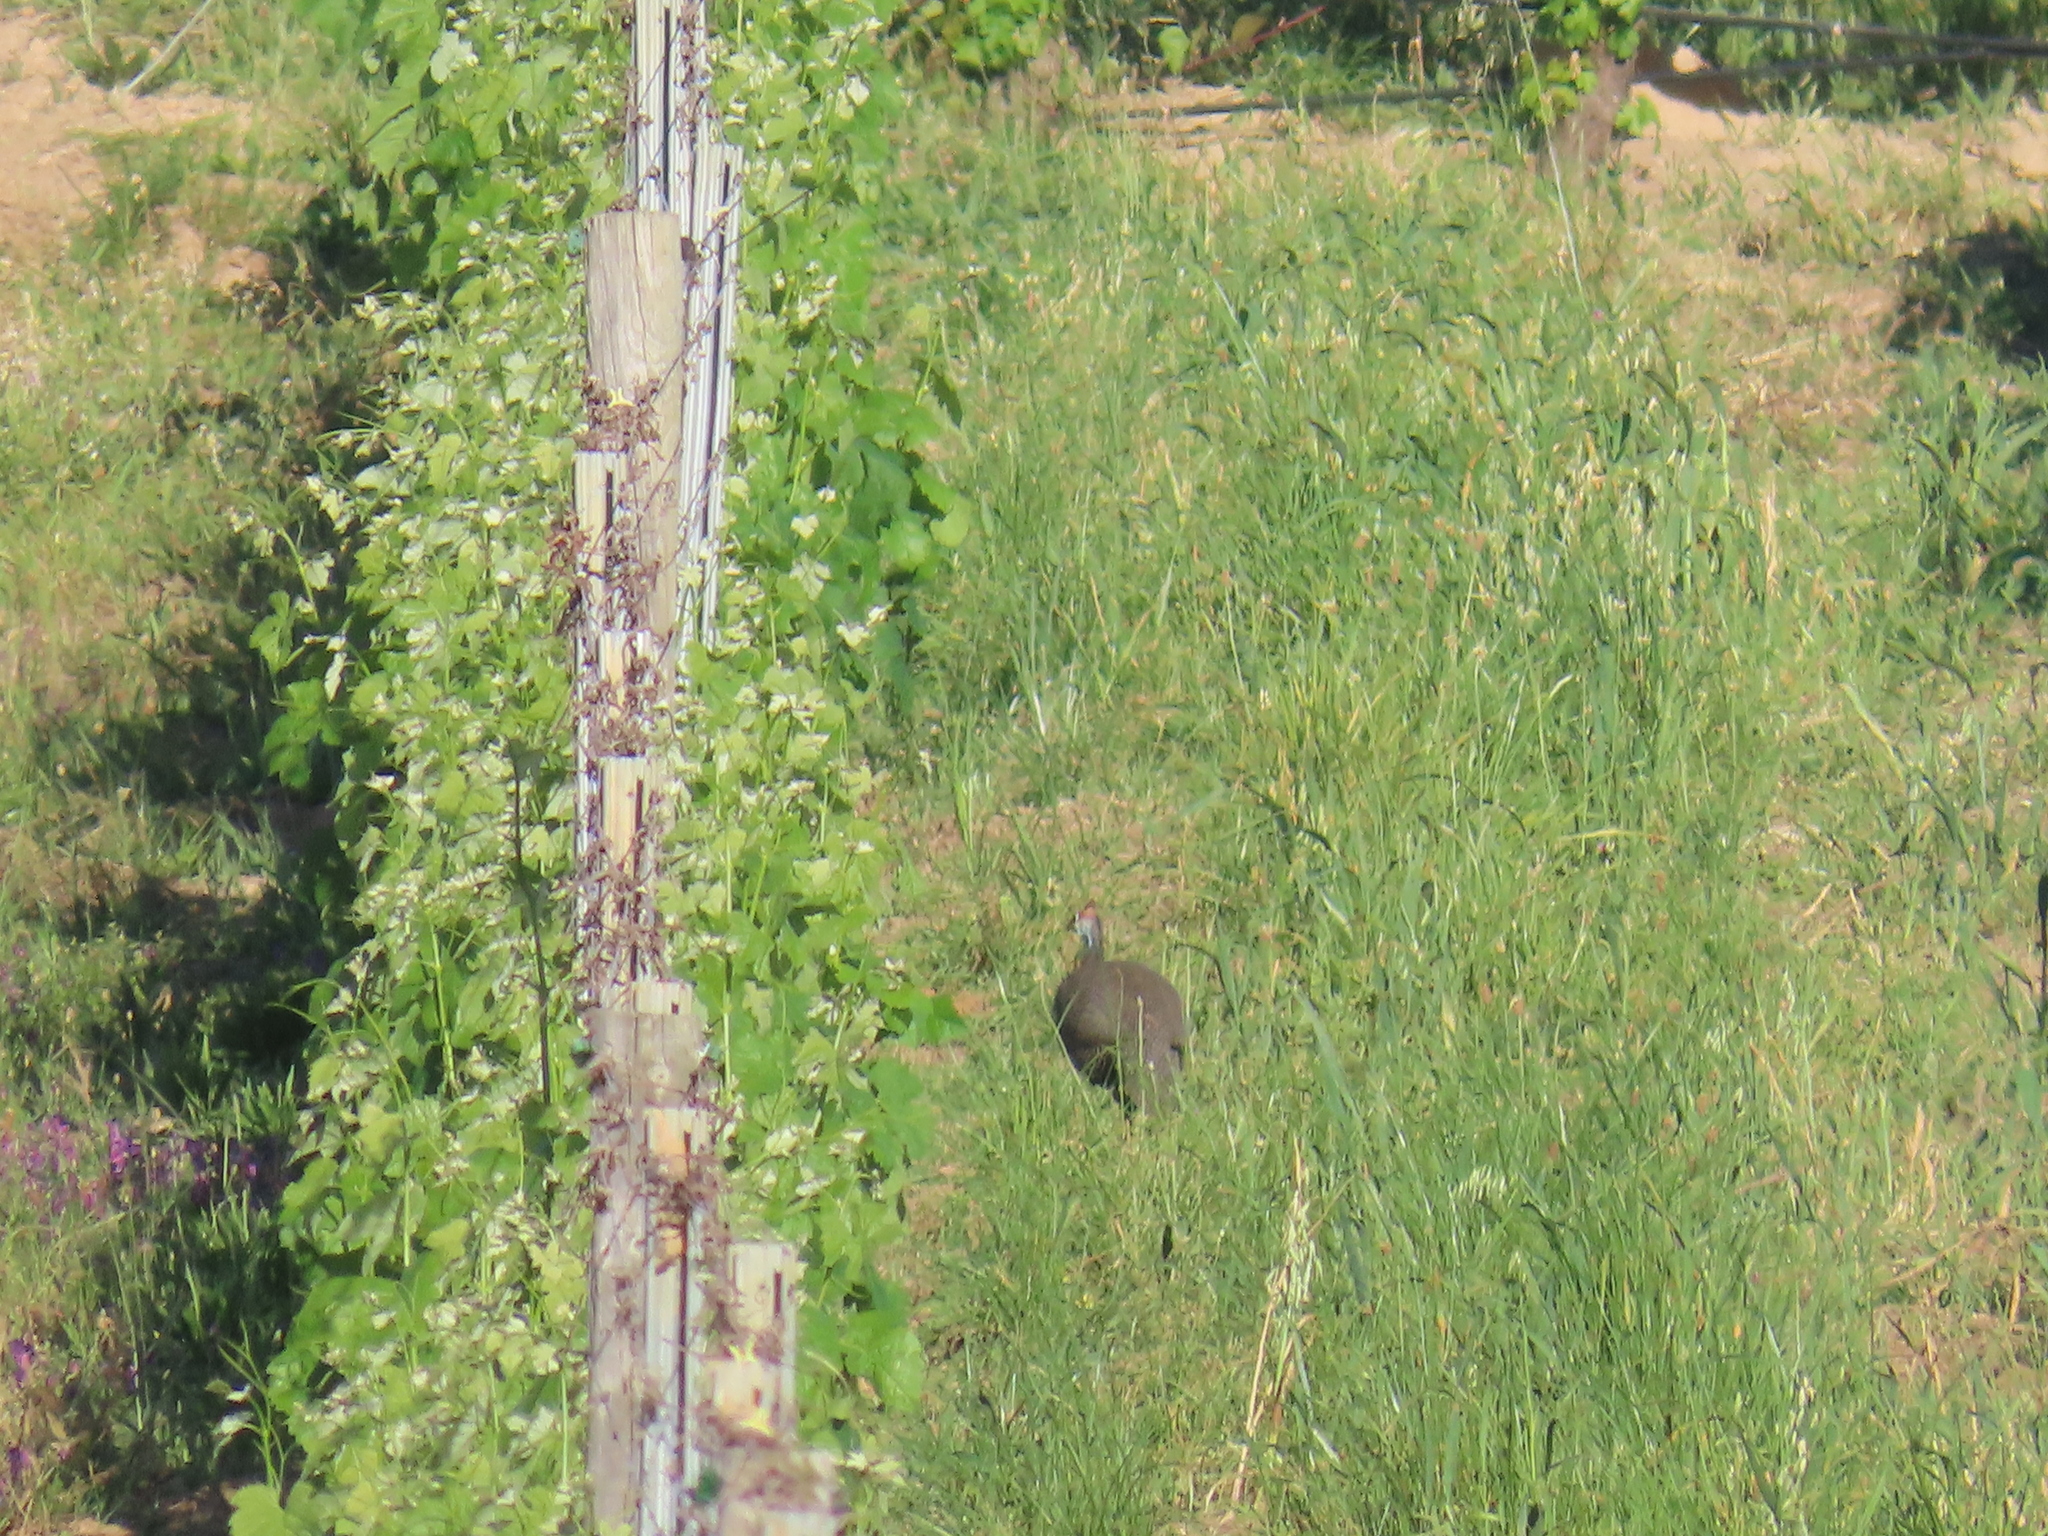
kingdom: Animalia
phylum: Chordata
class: Aves
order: Galliformes
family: Numididae
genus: Numida
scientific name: Numida meleagris
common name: Helmeted guineafowl
